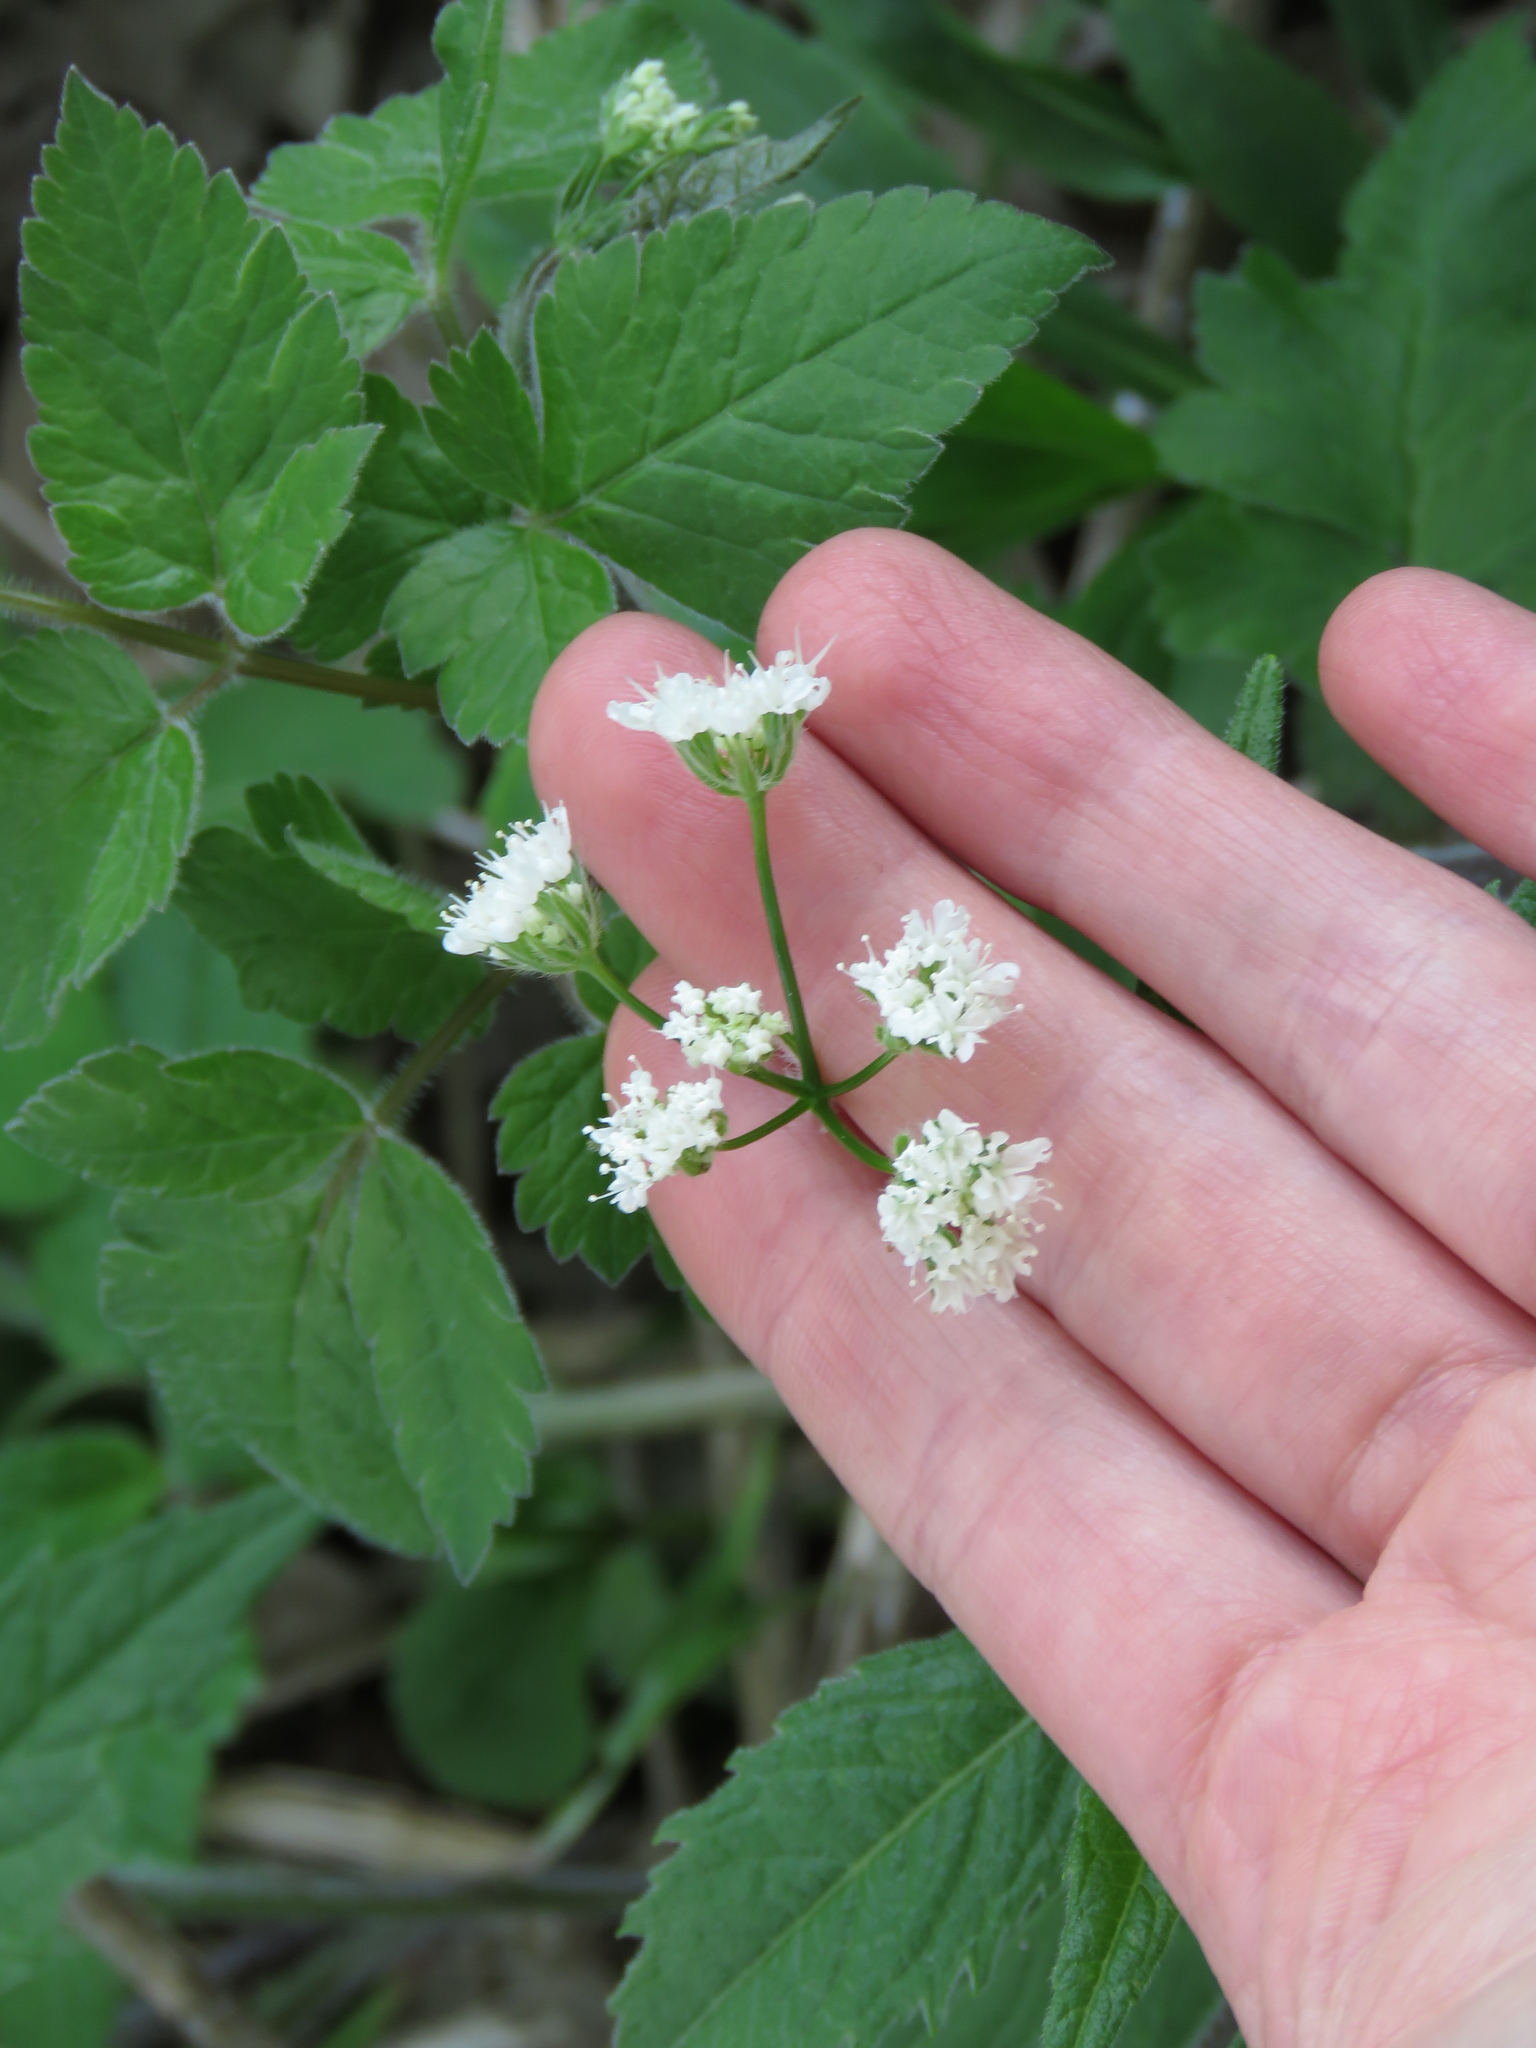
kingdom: Plantae
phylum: Tracheophyta
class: Magnoliopsida
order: Apiales
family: Apiaceae
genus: Osmorhiza
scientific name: Osmorhiza longistylis
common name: Smooth sweet cicely
